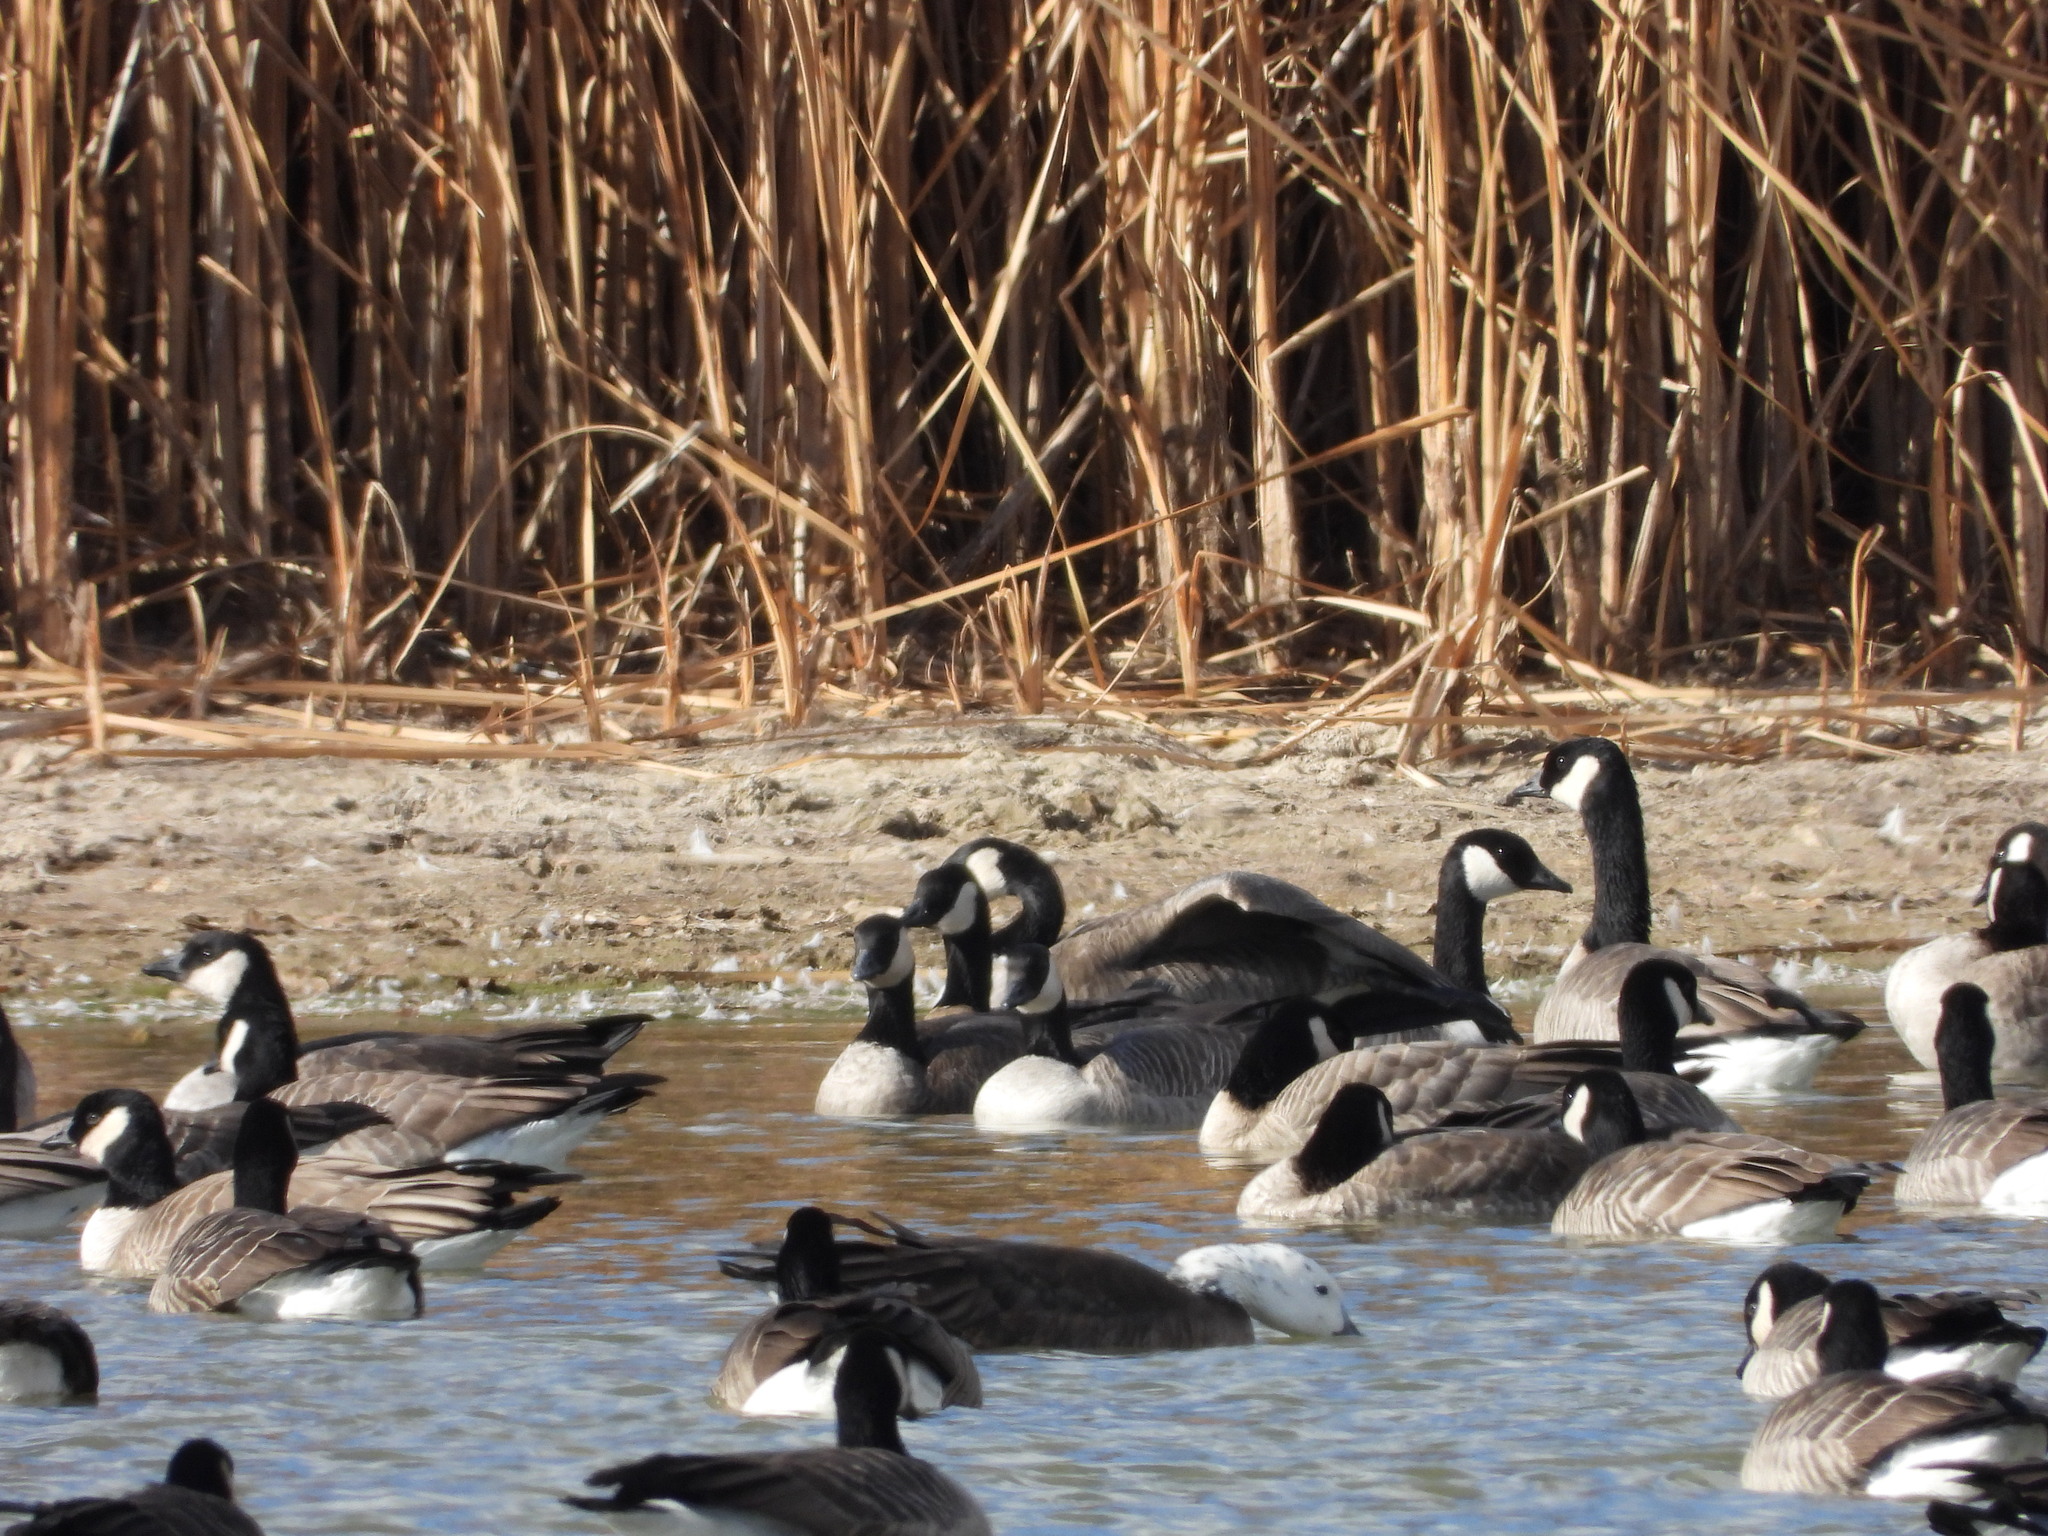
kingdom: Animalia
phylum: Chordata
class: Aves
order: Anseriformes
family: Anatidae
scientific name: Anatidae
